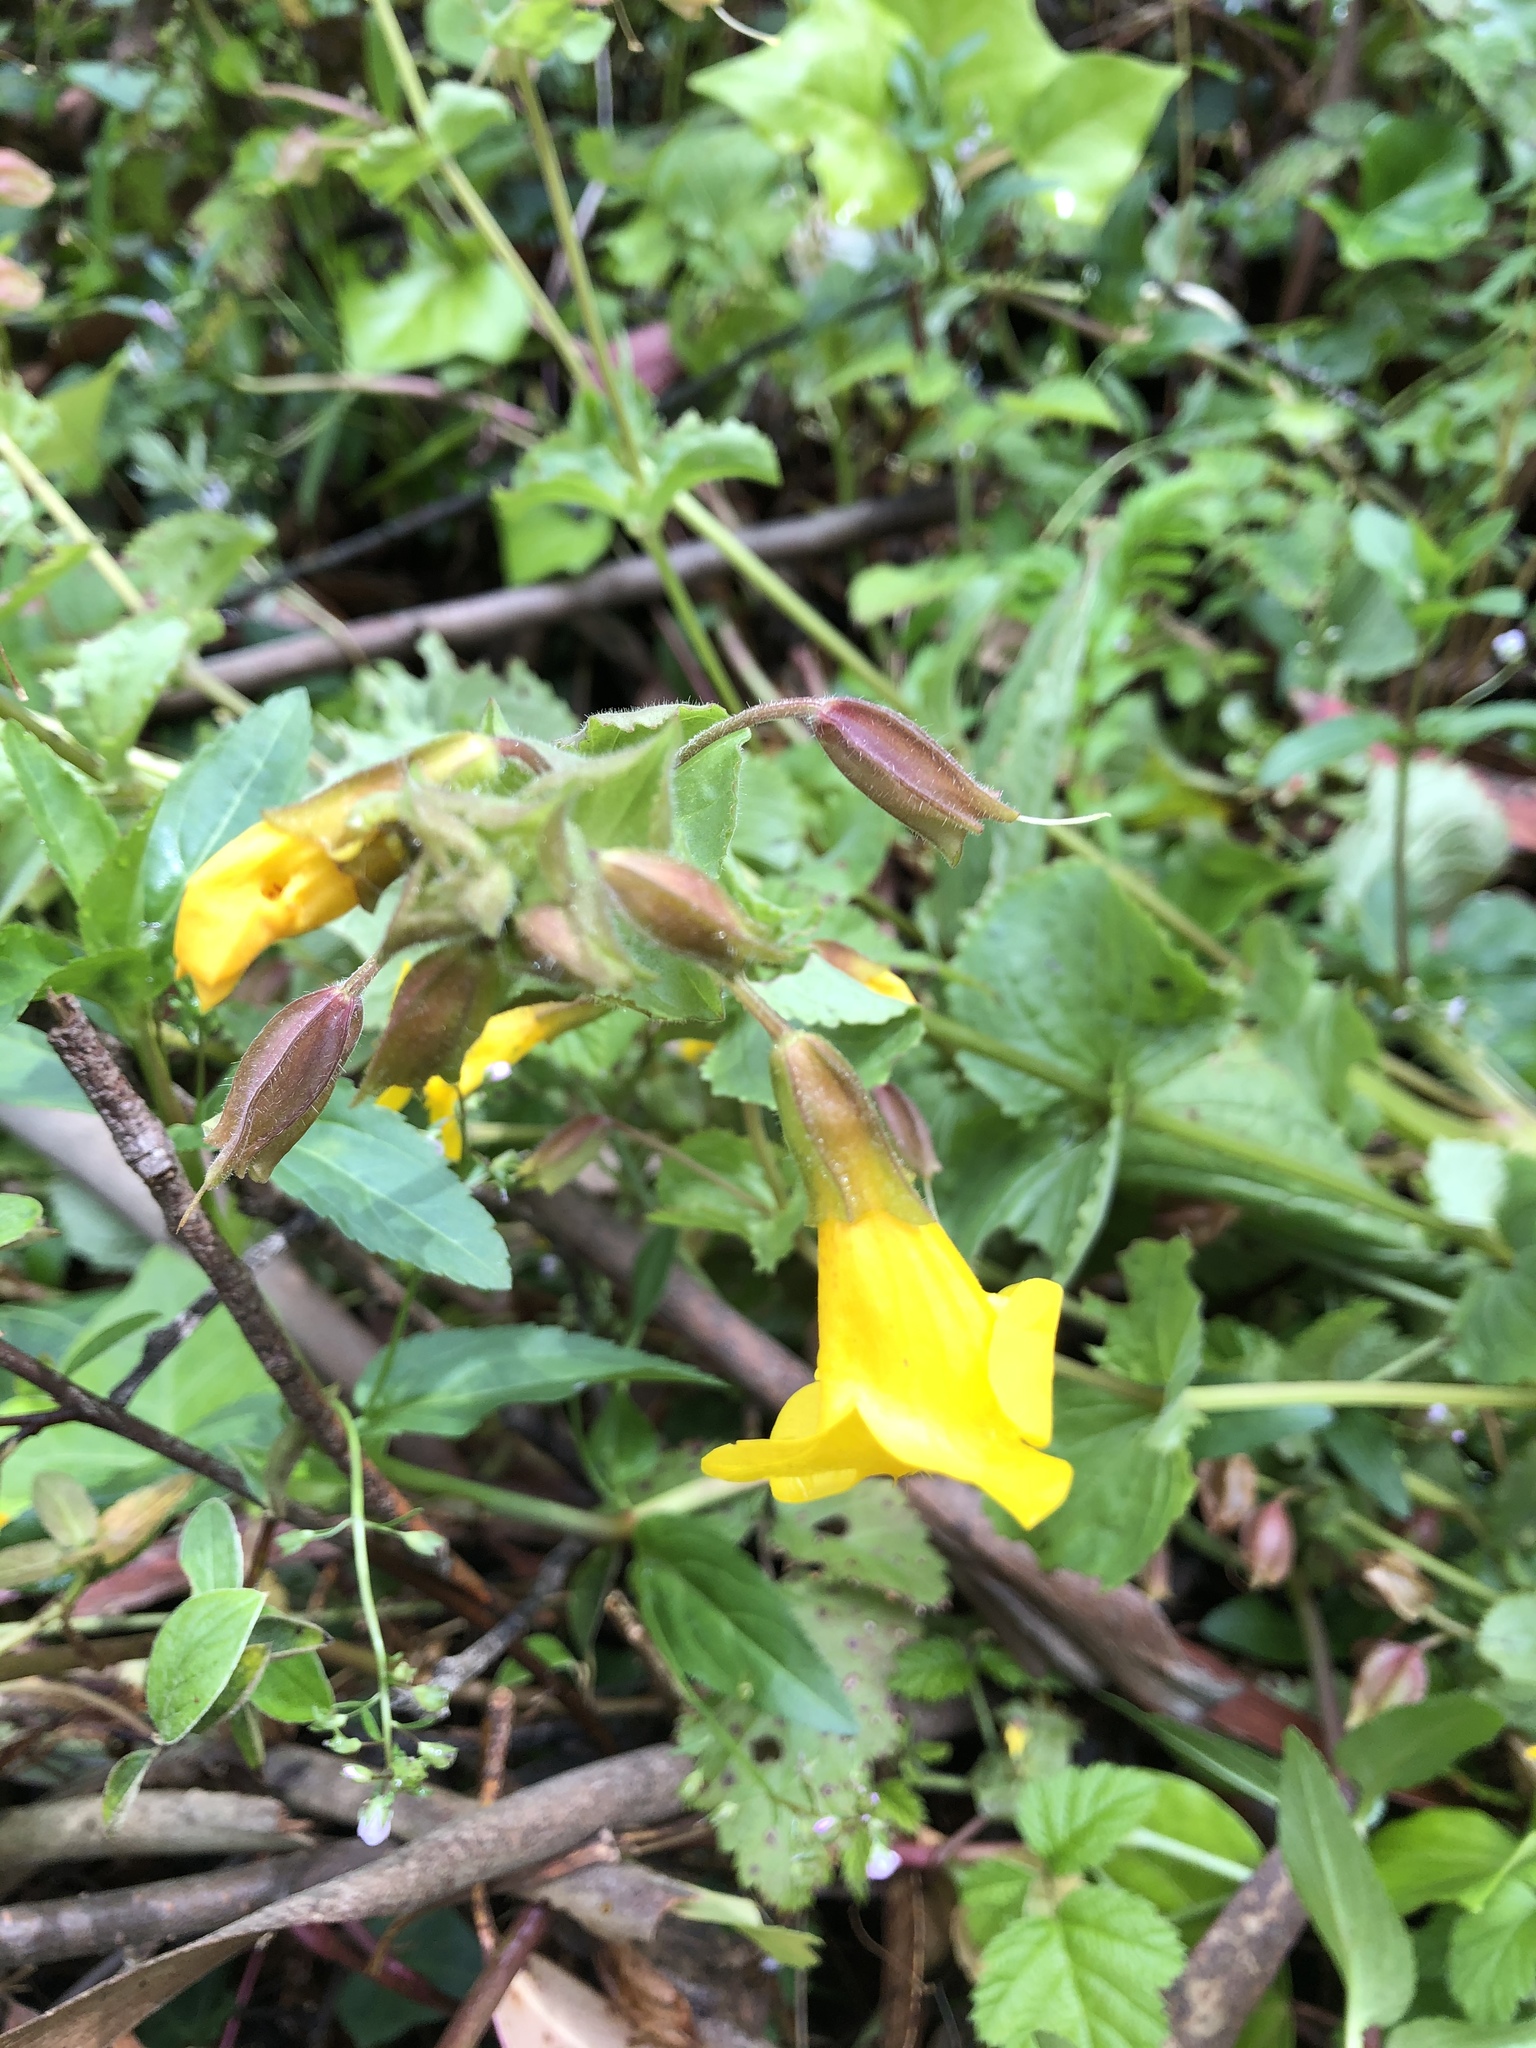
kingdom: Plantae
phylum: Tracheophyta
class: Magnoliopsida
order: Lamiales
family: Phrymaceae
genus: Erythranthe
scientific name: Erythranthe guttata
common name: Monkeyflower
